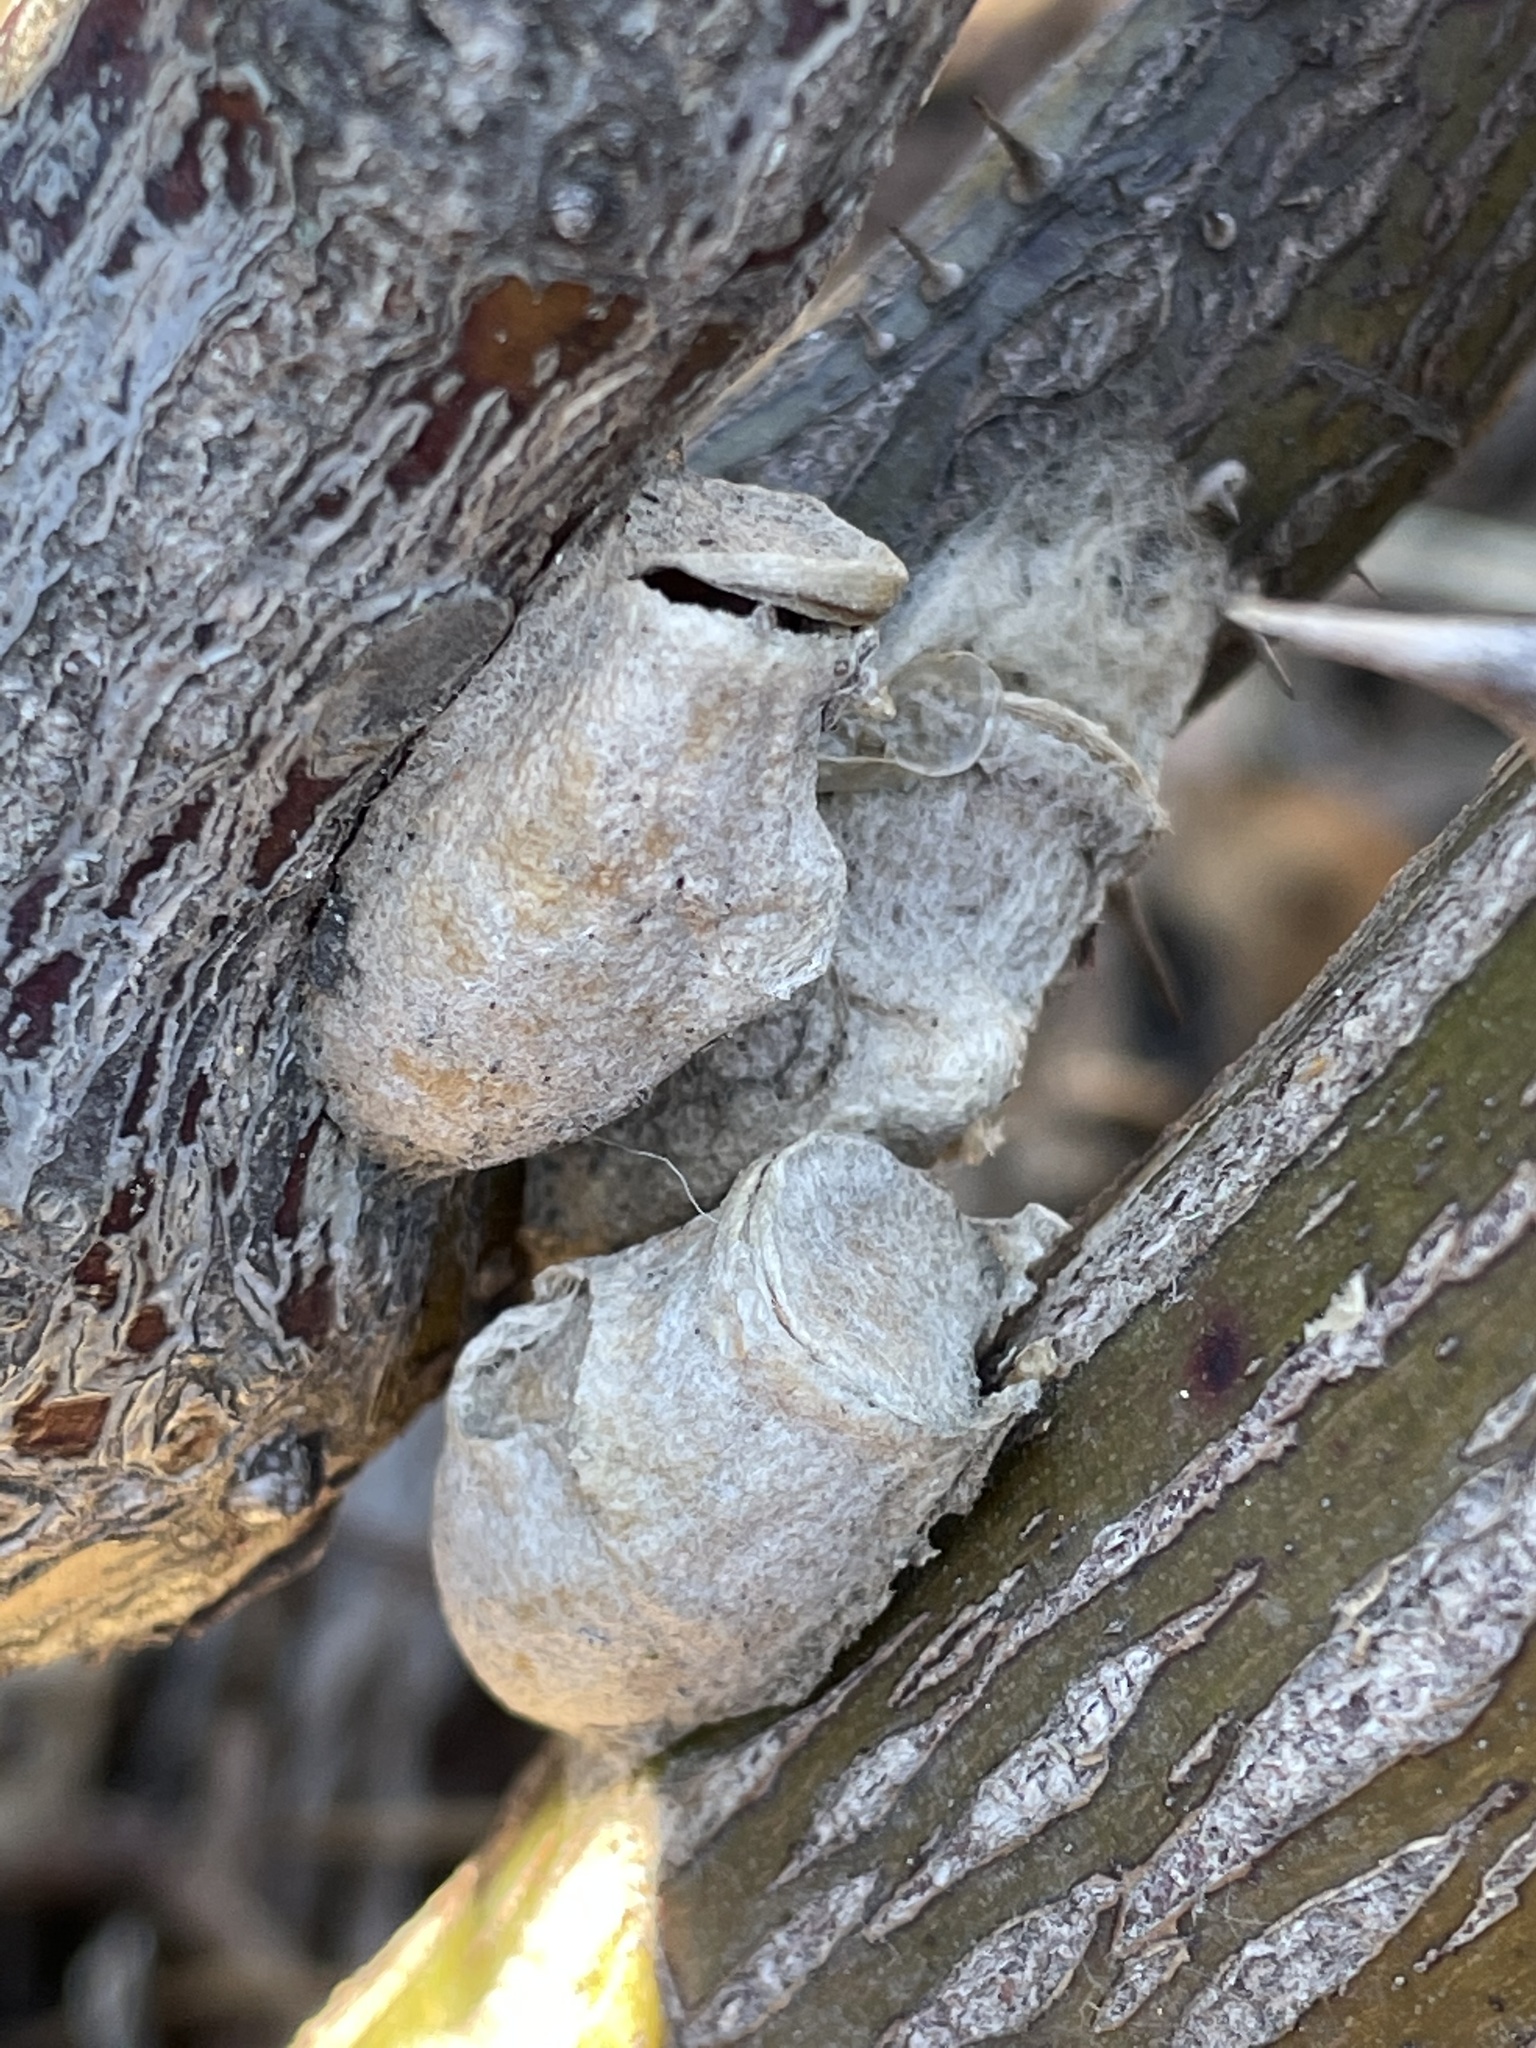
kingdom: Animalia
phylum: Arthropoda
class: Insecta
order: Lepidoptera
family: Megalopygidae
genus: Megalopyge
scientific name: Megalopyge opercularis
